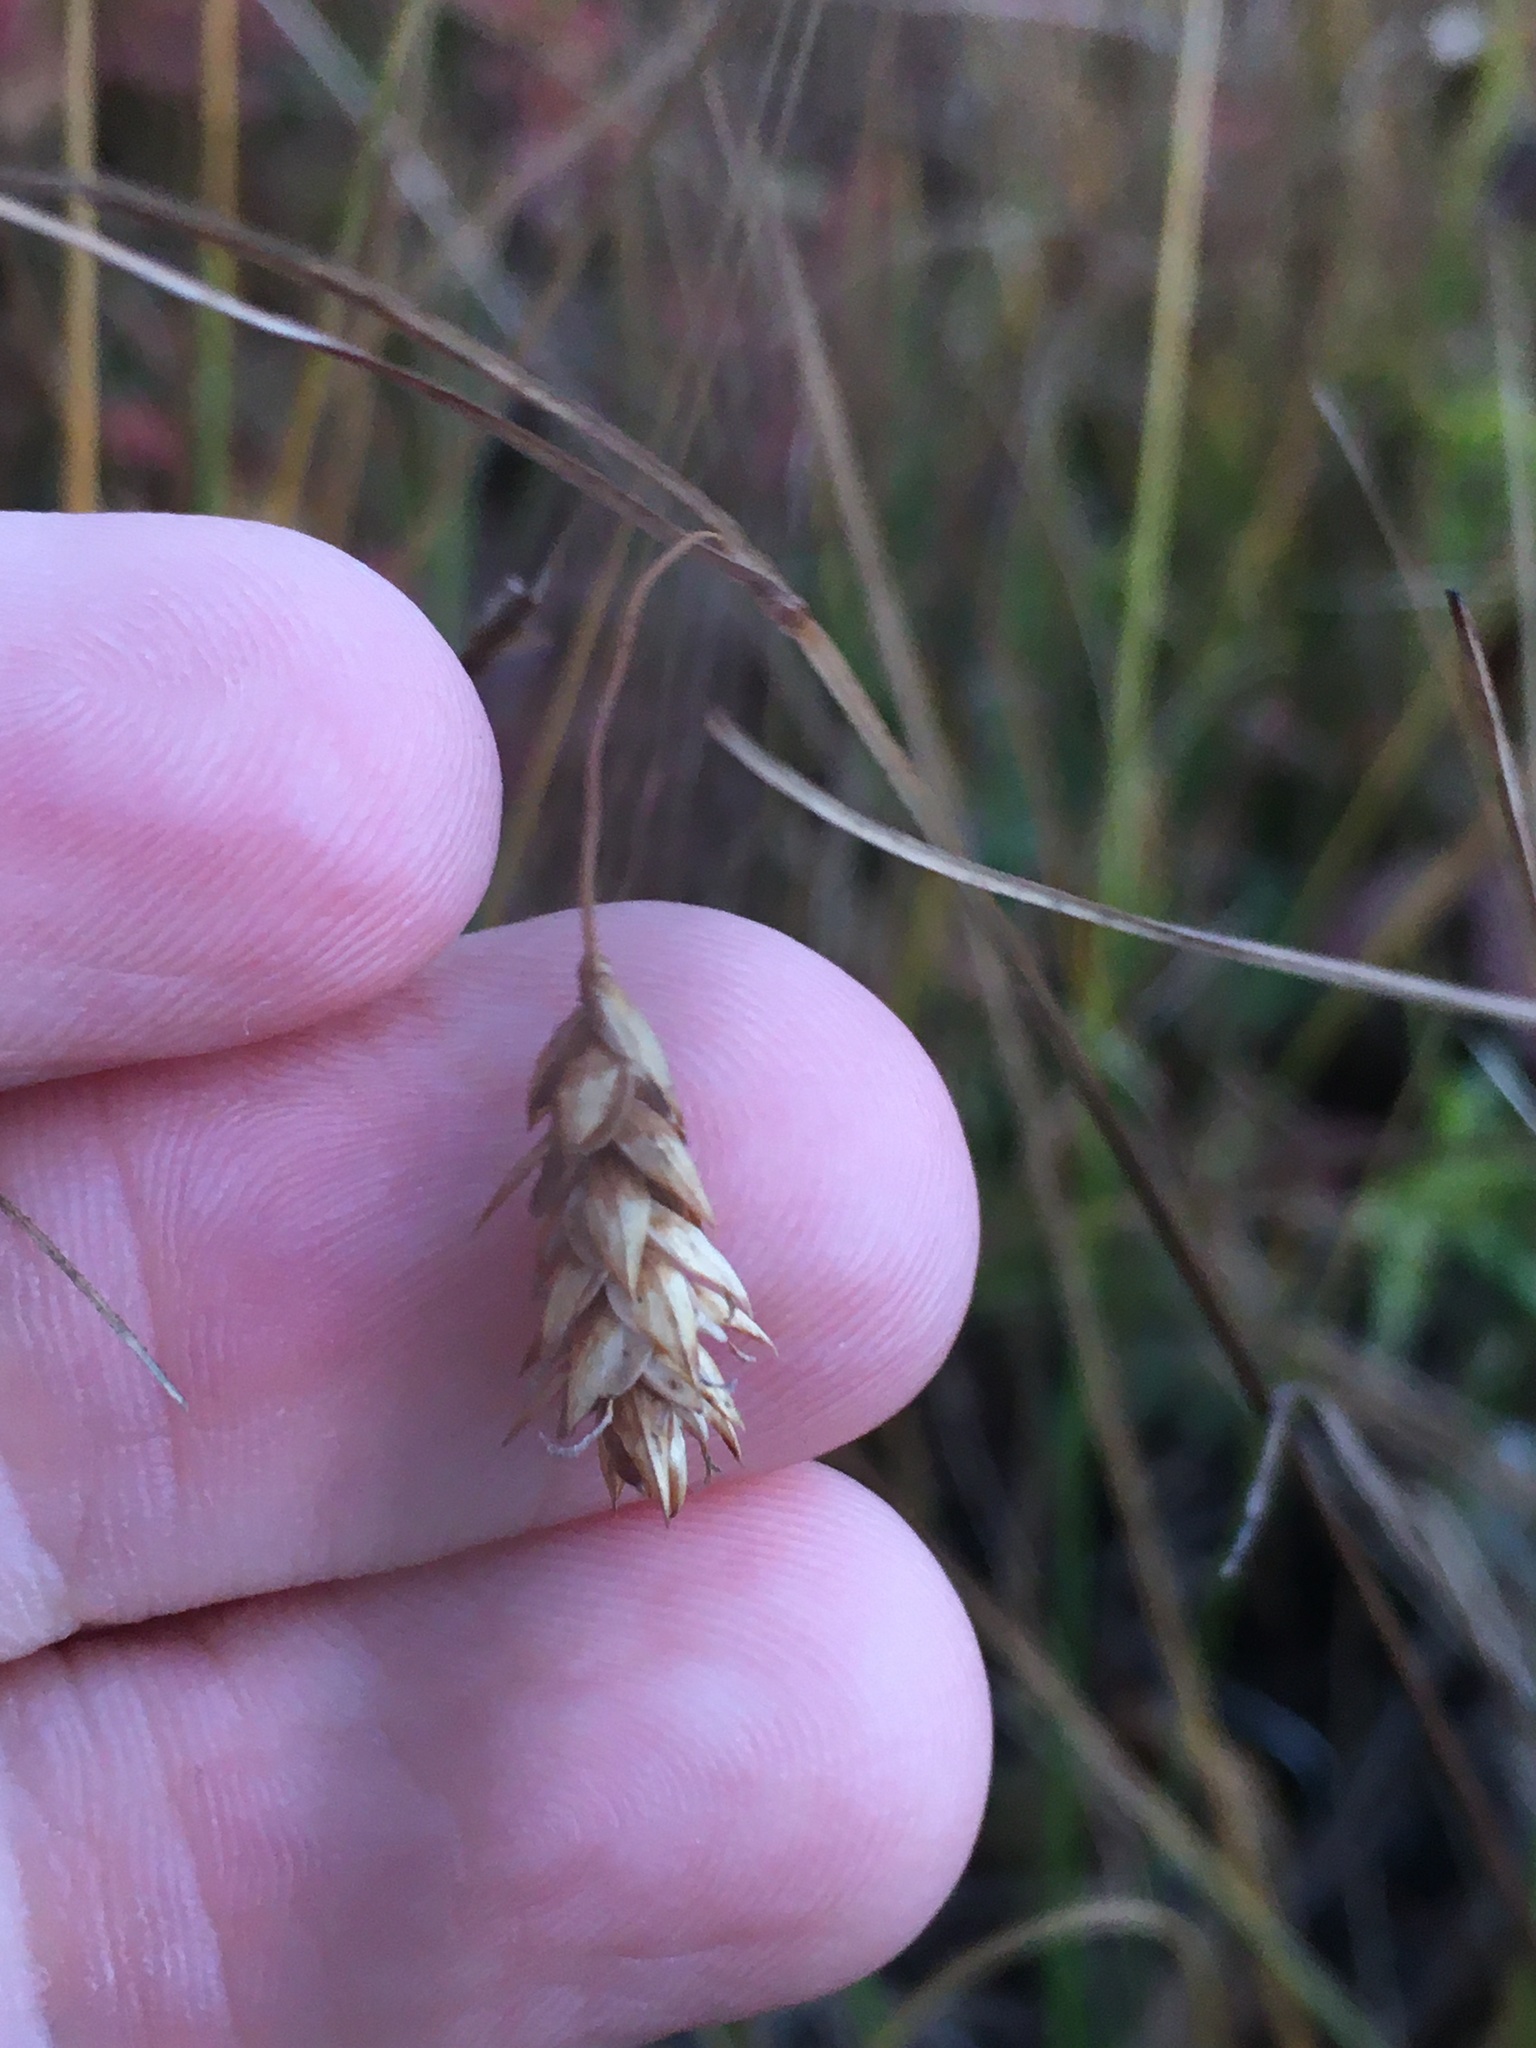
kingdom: Plantae
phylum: Tracheophyta
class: Liliopsida
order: Poales
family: Cyperaceae
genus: Carex
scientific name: Carex limosa
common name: Bog sedge
